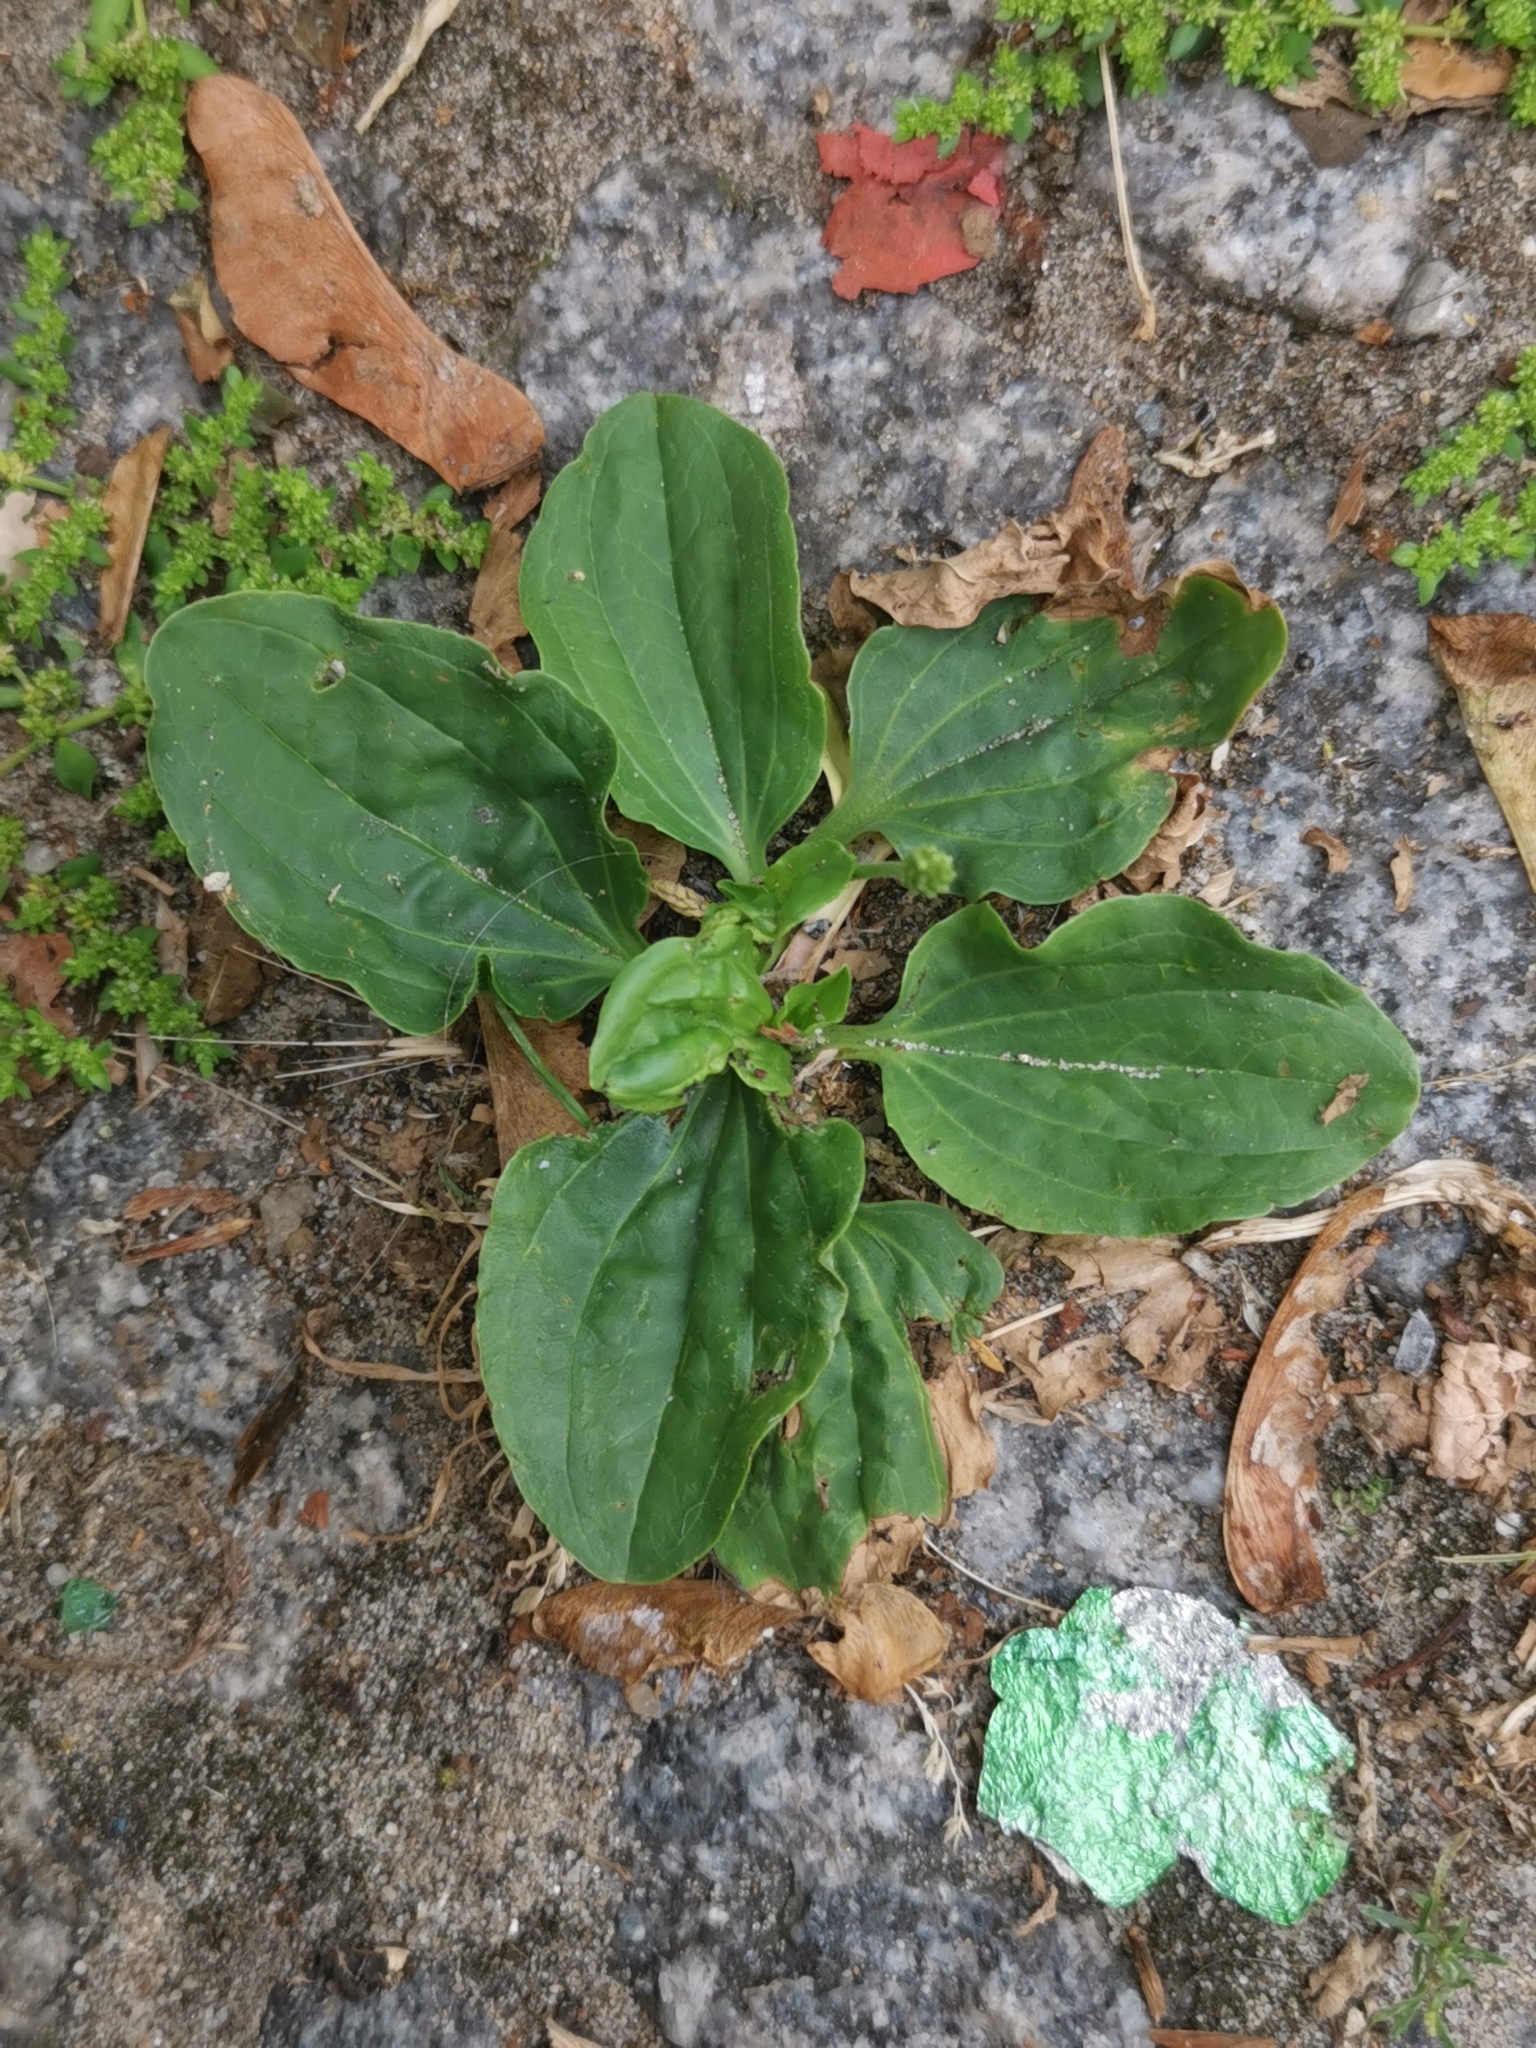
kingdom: Plantae
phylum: Tracheophyta
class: Magnoliopsida
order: Lamiales
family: Plantaginaceae
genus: Plantago
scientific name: Plantago major
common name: Common plantain
